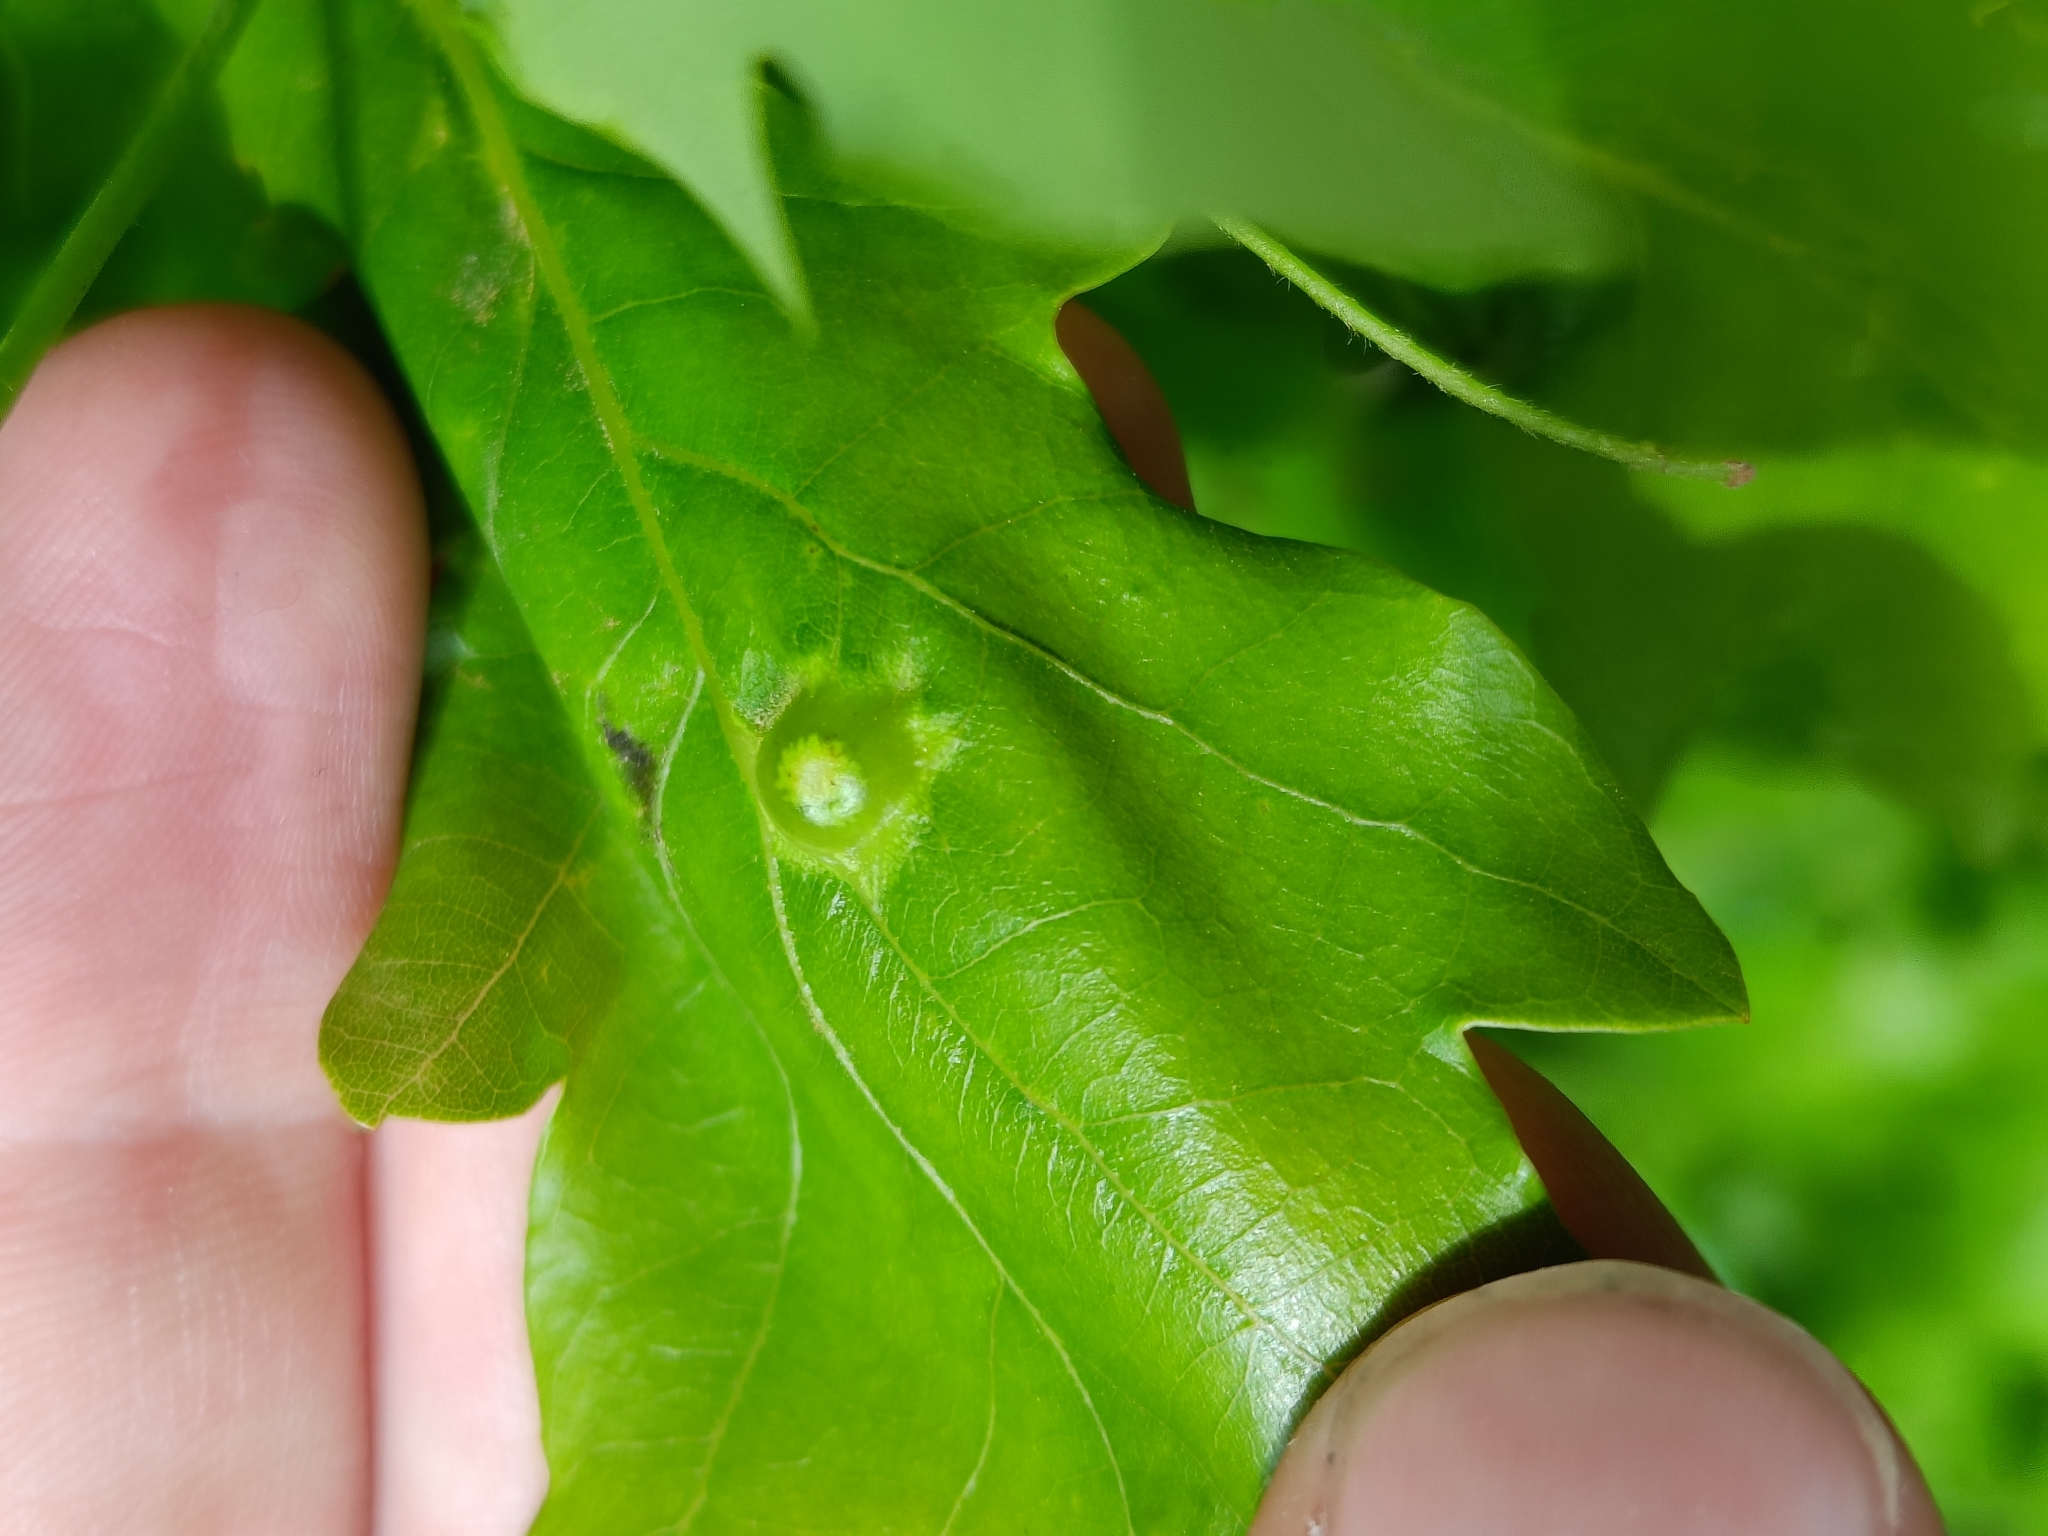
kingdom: Animalia
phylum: Arthropoda
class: Insecta
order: Hymenoptera
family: Cynipidae
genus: Andricus
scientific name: Andricus curvator
